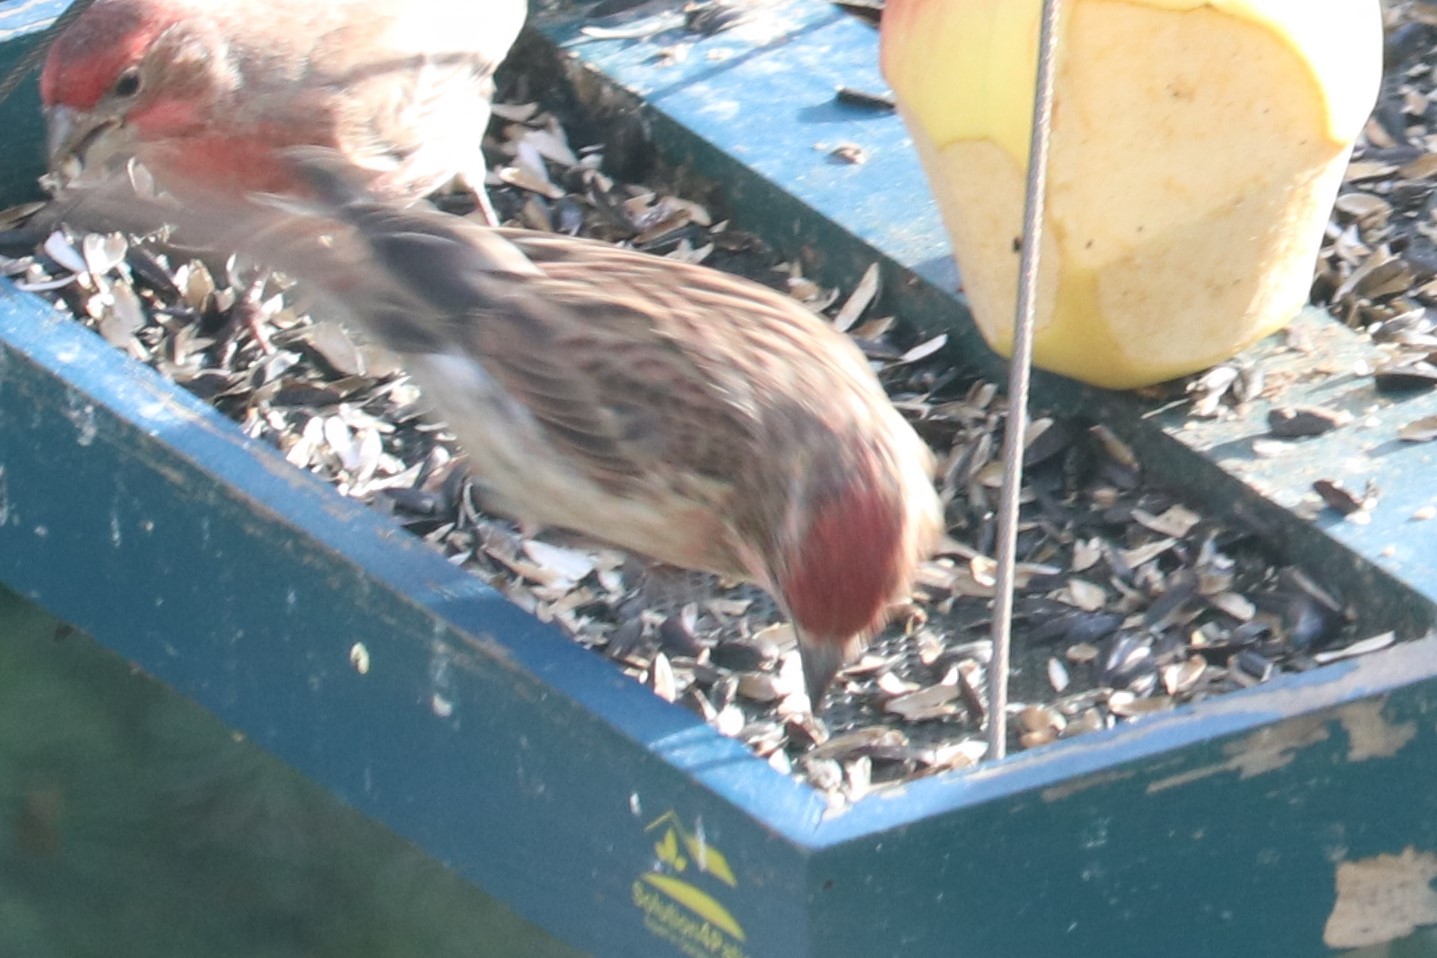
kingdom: Animalia
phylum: Chordata
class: Aves
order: Passeriformes
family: Fringillidae
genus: Haemorhous
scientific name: Haemorhous cassinii
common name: Cassin's finch
